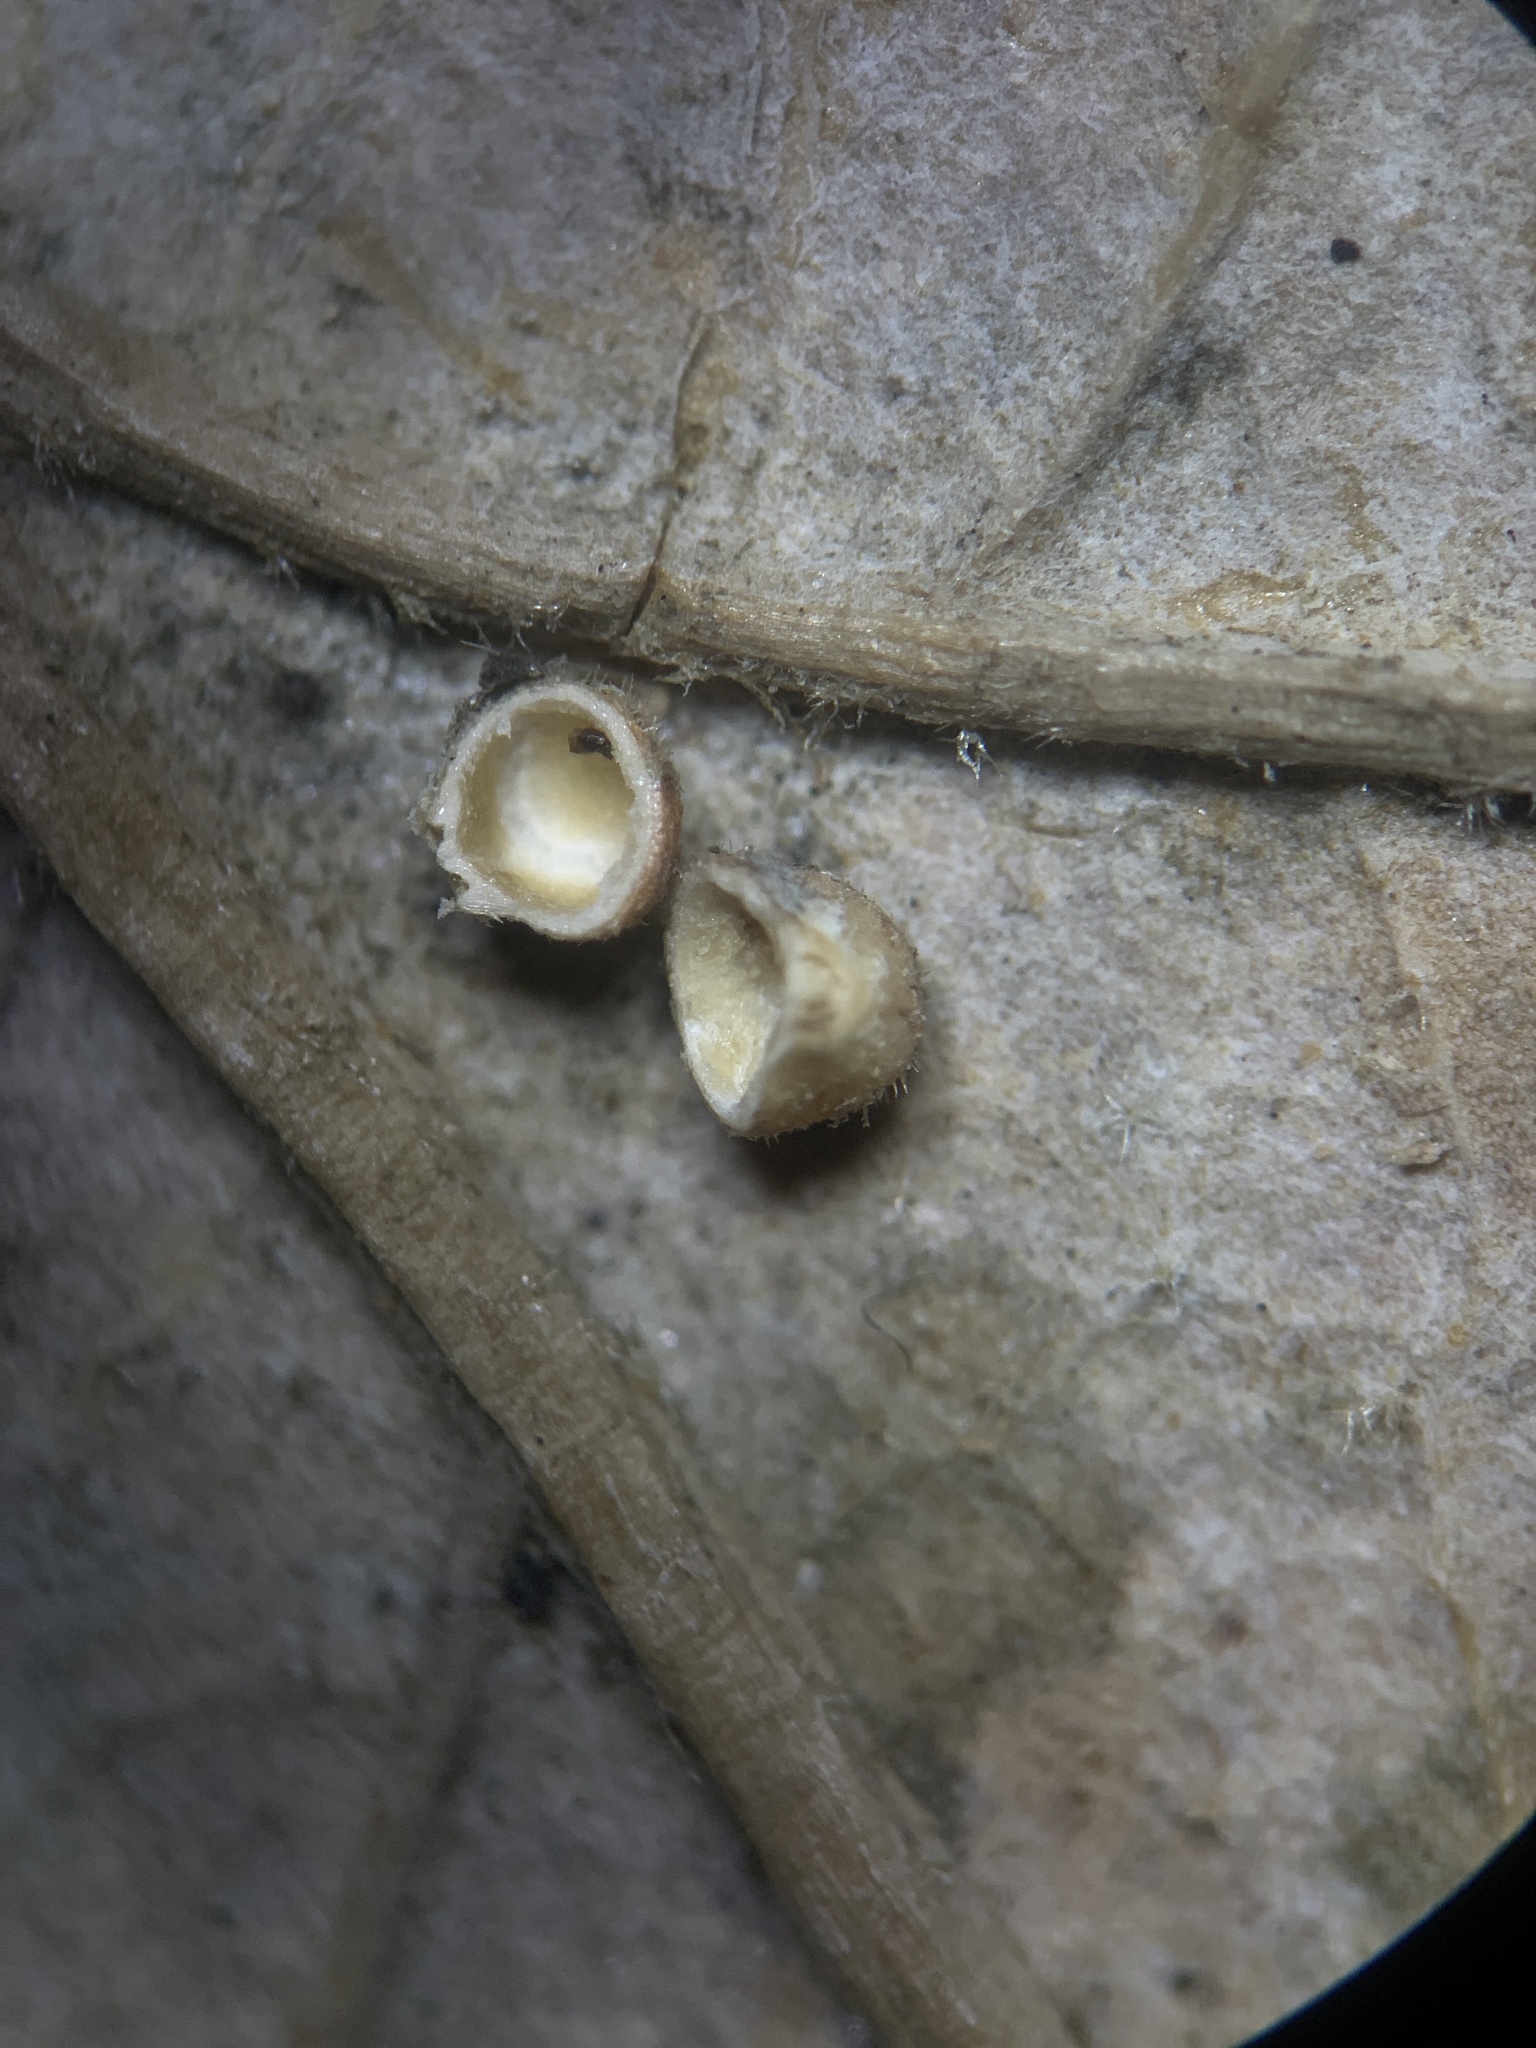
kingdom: Animalia
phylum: Arthropoda
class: Insecta
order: Hymenoptera
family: Cynipidae
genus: Neuroterus
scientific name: Neuroterus saltarius
